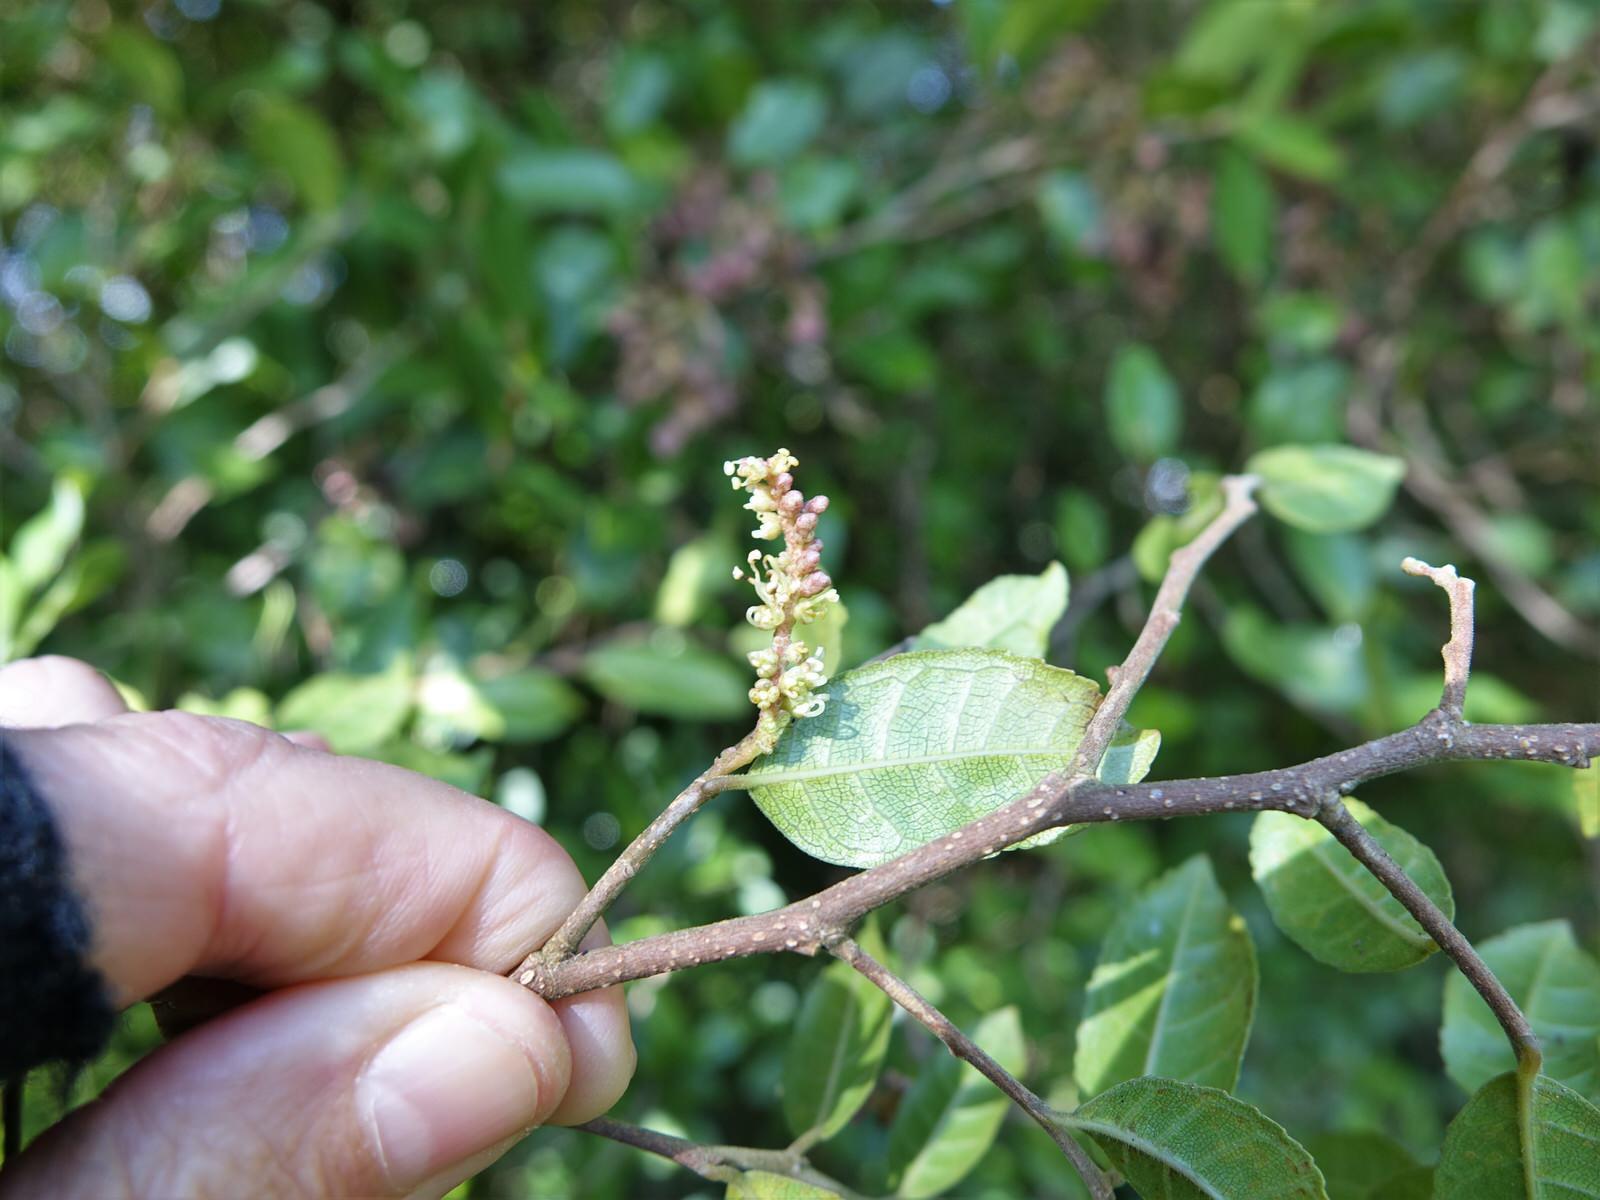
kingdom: Animalia
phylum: Arthropoda
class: Arachnida
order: Trombidiformes
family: Eriophyidae
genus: Eriophyes
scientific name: Eriophyes
